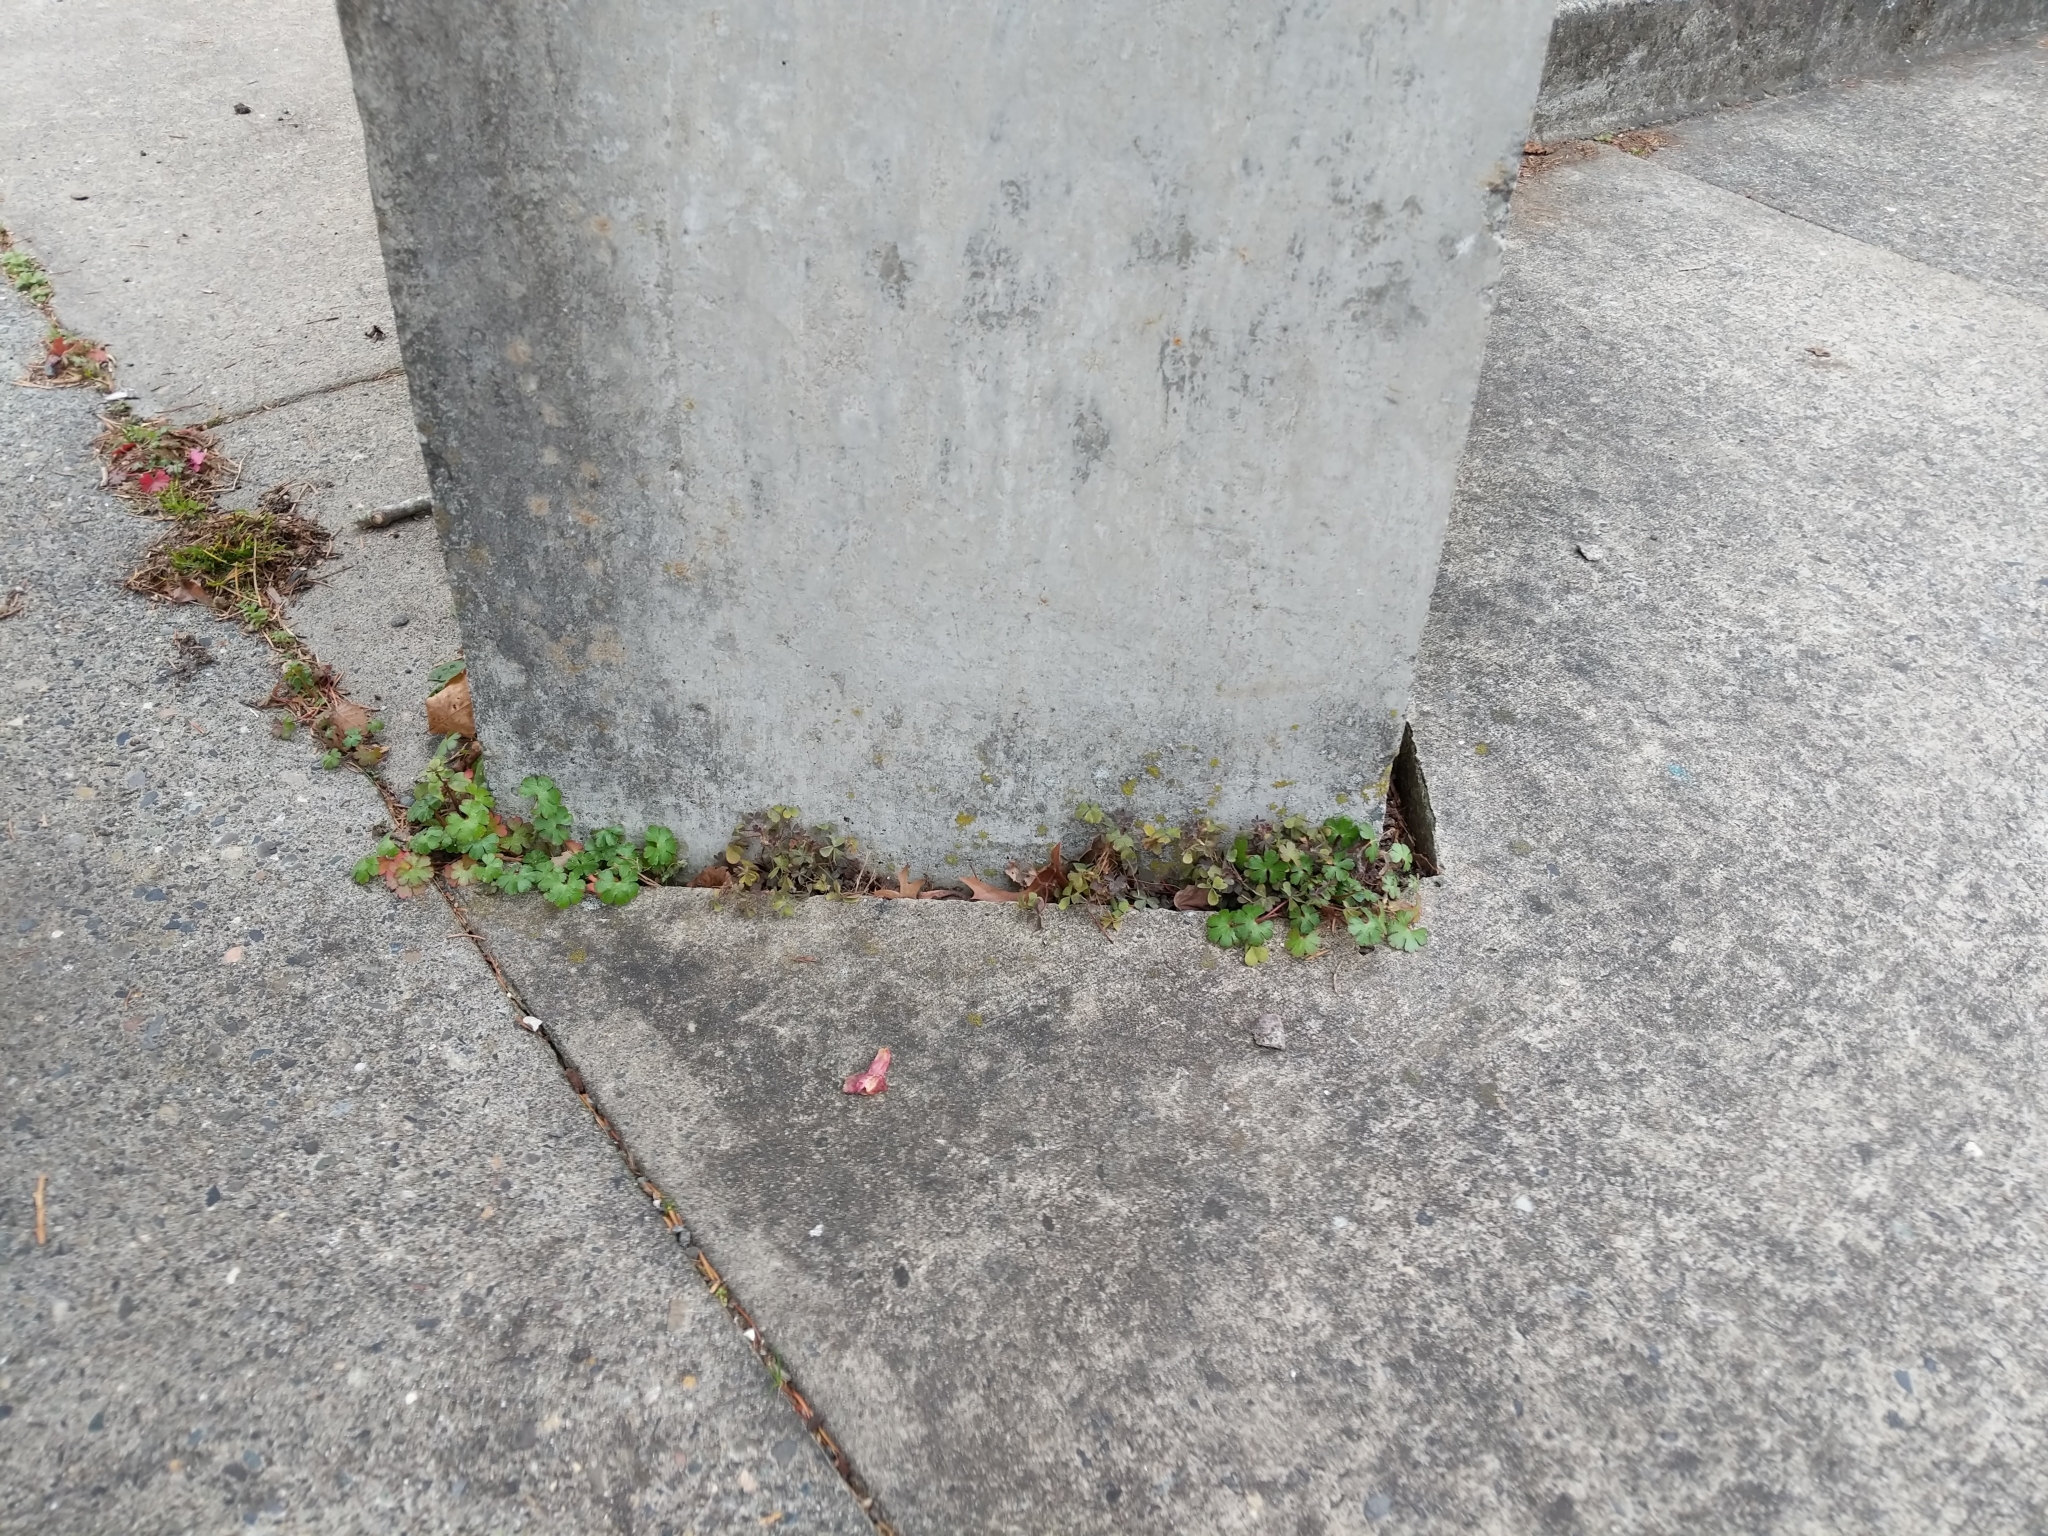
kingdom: Plantae
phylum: Tracheophyta
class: Magnoliopsida
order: Geraniales
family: Geraniaceae
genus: Geranium
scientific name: Geranium lucidum
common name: Shining crane's-bill
